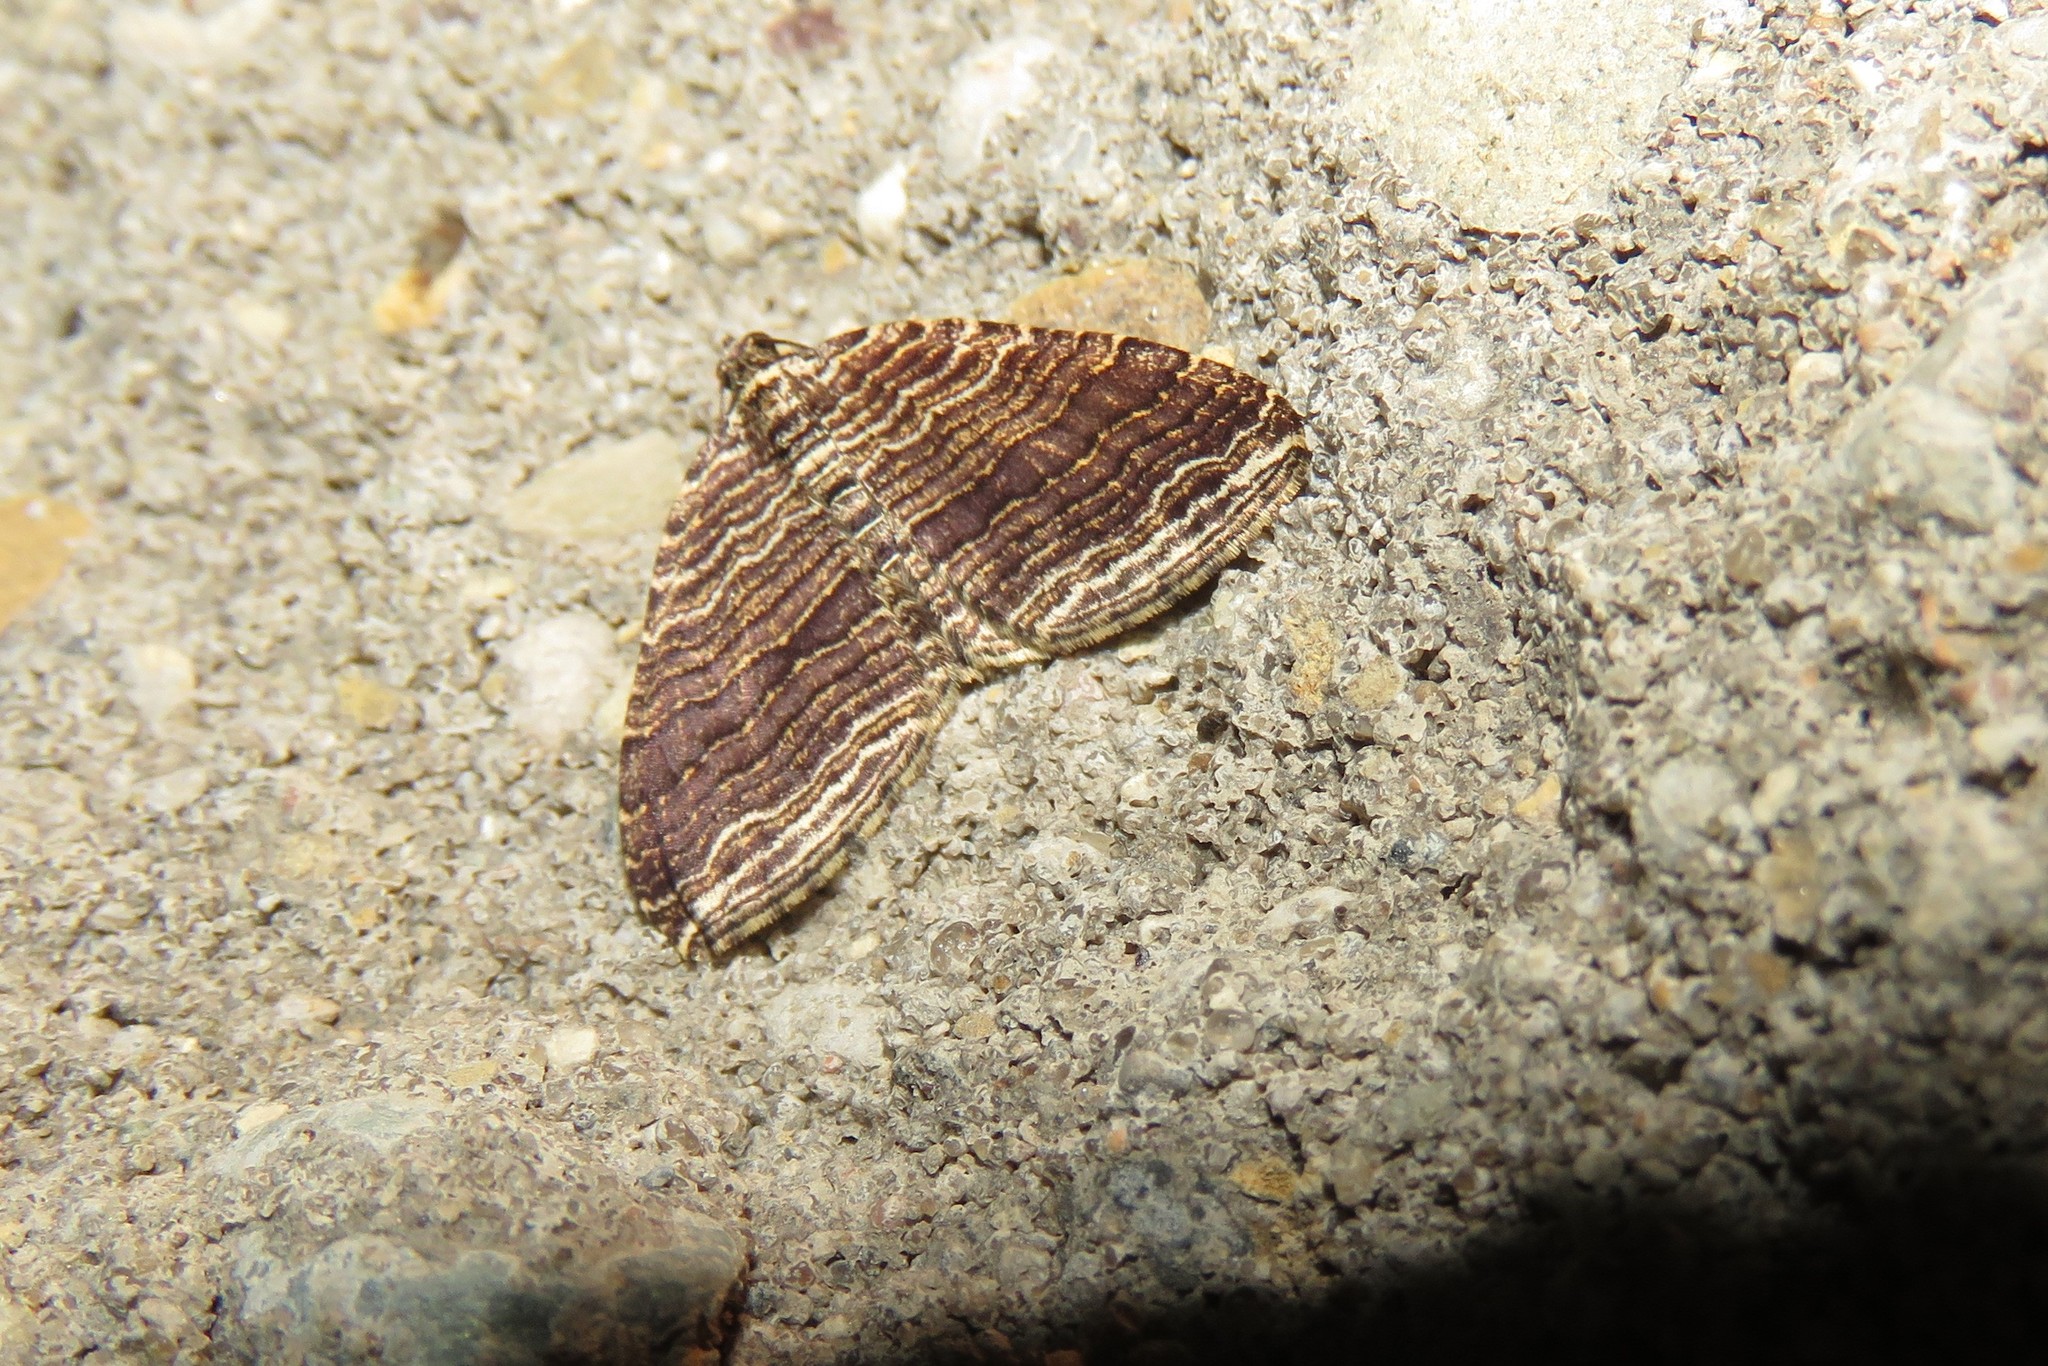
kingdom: Animalia
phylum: Arthropoda
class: Insecta
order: Lepidoptera
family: Geometridae
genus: Anticlea
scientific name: Anticlea multiferata
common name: Many-lined carpet
